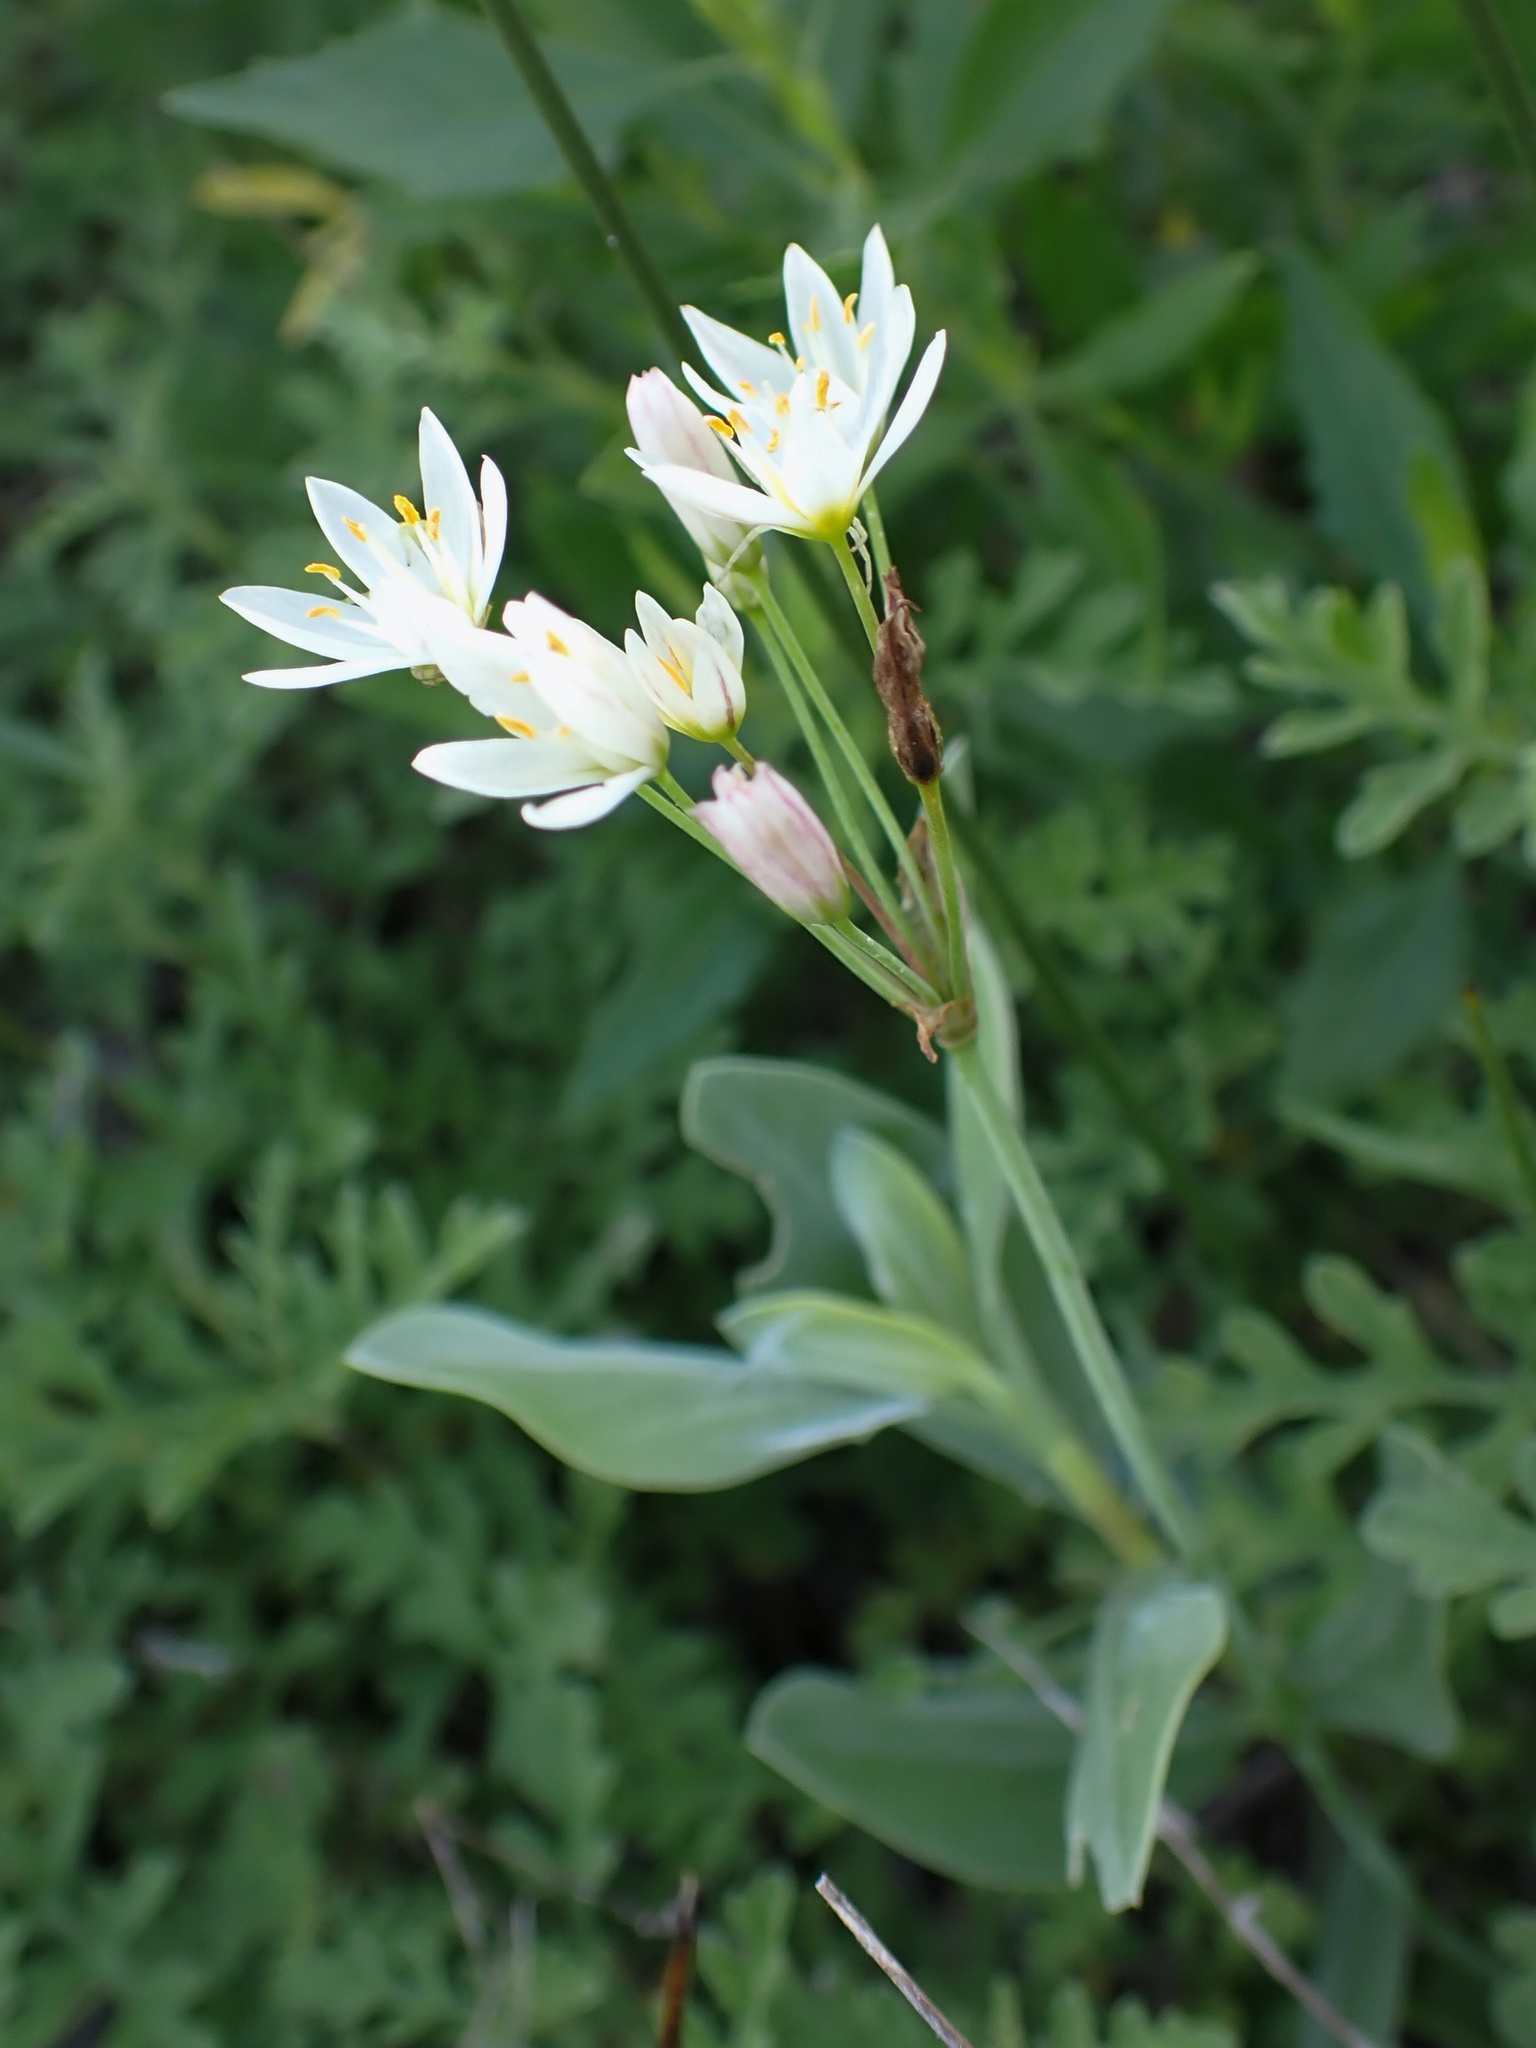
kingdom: Plantae
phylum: Tracheophyta
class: Liliopsida
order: Asparagales
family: Amaryllidaceae
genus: Nothoscordum
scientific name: Nothoscordum bivalve
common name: Crow-poison
